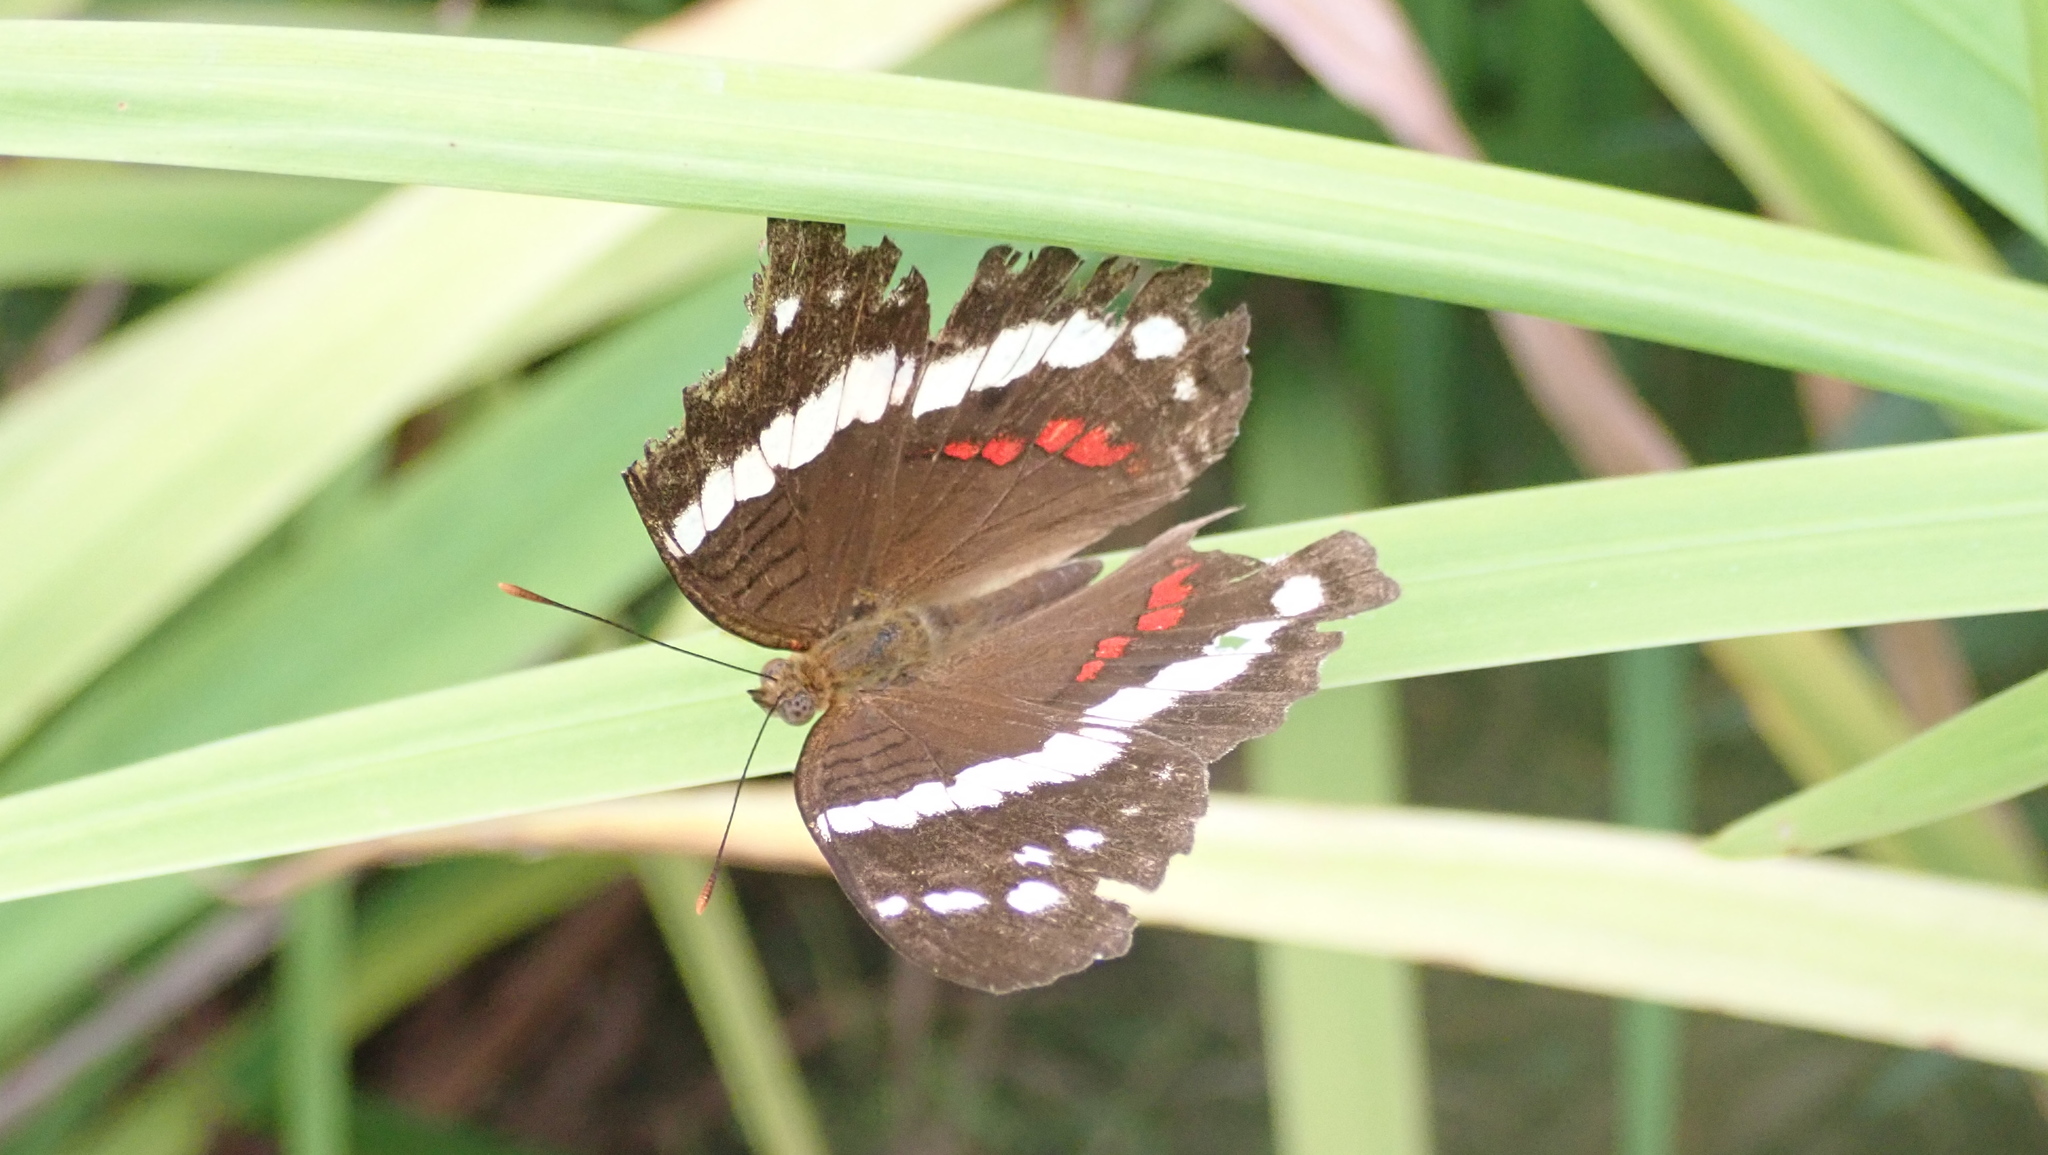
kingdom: Animalia
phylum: Arthropoda
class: Insecta
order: Lepidoptera
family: Nymphalidae
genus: Anartia
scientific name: Anartia fatima
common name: Banded peacock
